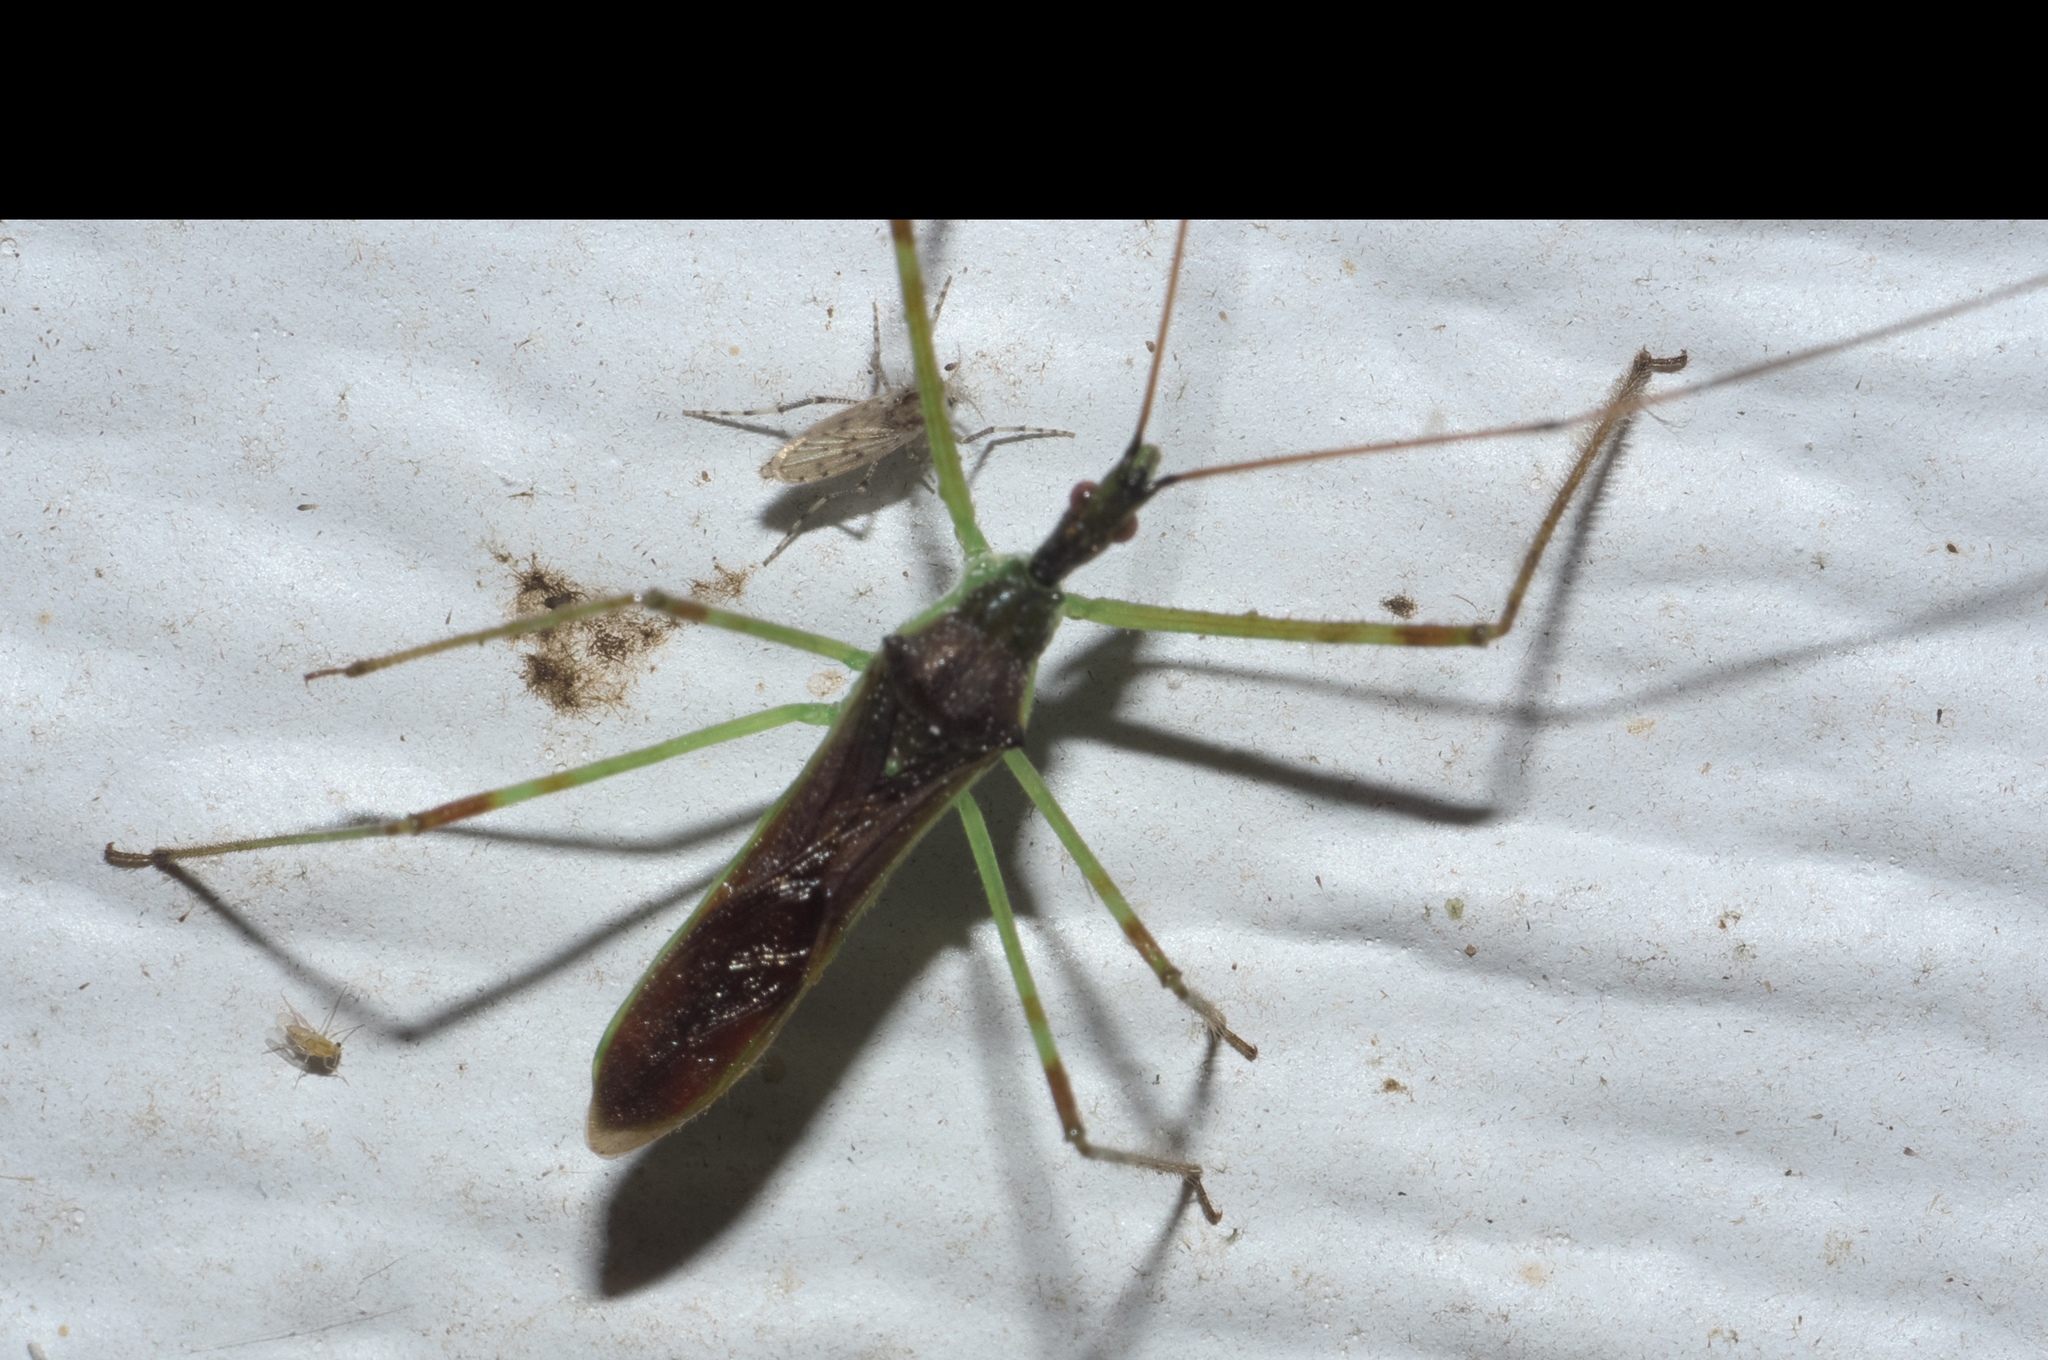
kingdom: Animalia
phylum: Arthropoda
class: Insecta
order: Hemiptera
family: Reduviidae
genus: Zelus
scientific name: Zelus luridus
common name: Pale green assassin bug
